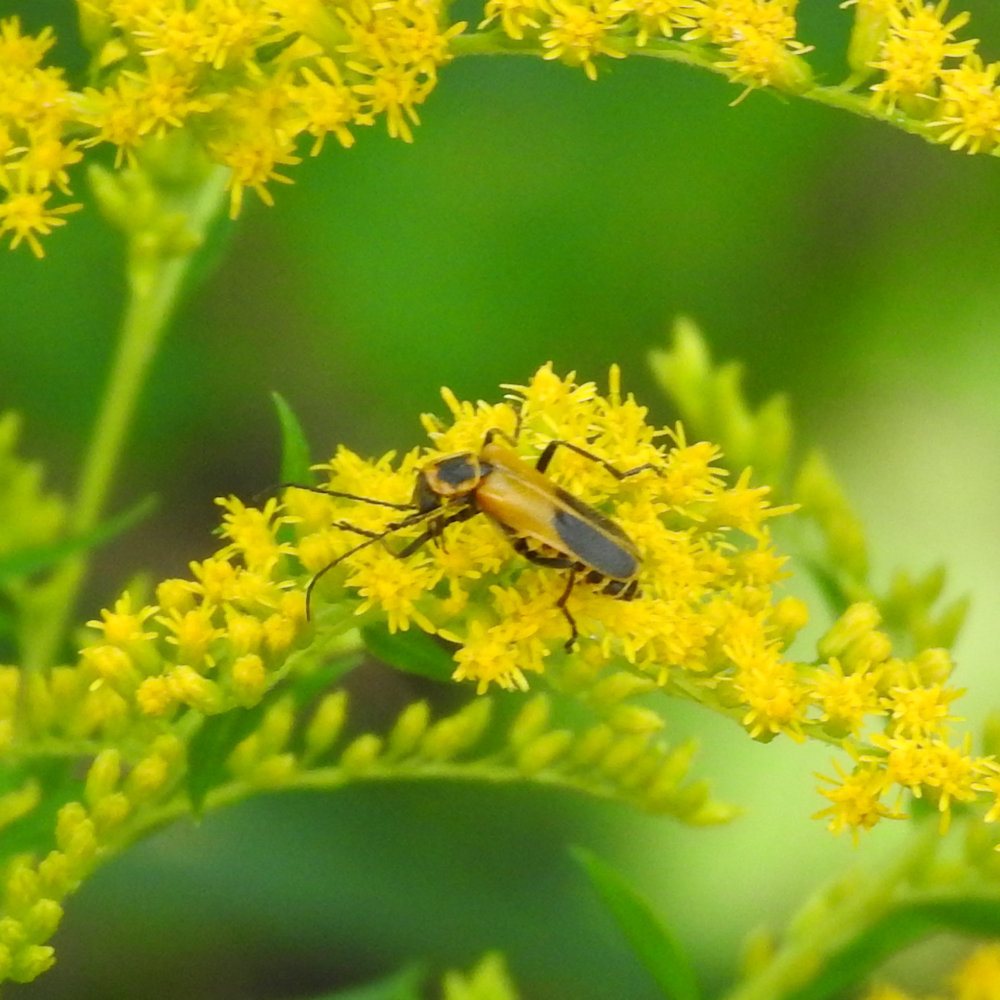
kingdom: Animalia
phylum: Arthropoda
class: Insecta
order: Coleoptera
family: Cantharidae
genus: Chauliognathus
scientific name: Chauliognathus pensylvanicus
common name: Goldenrod soldier beetle
